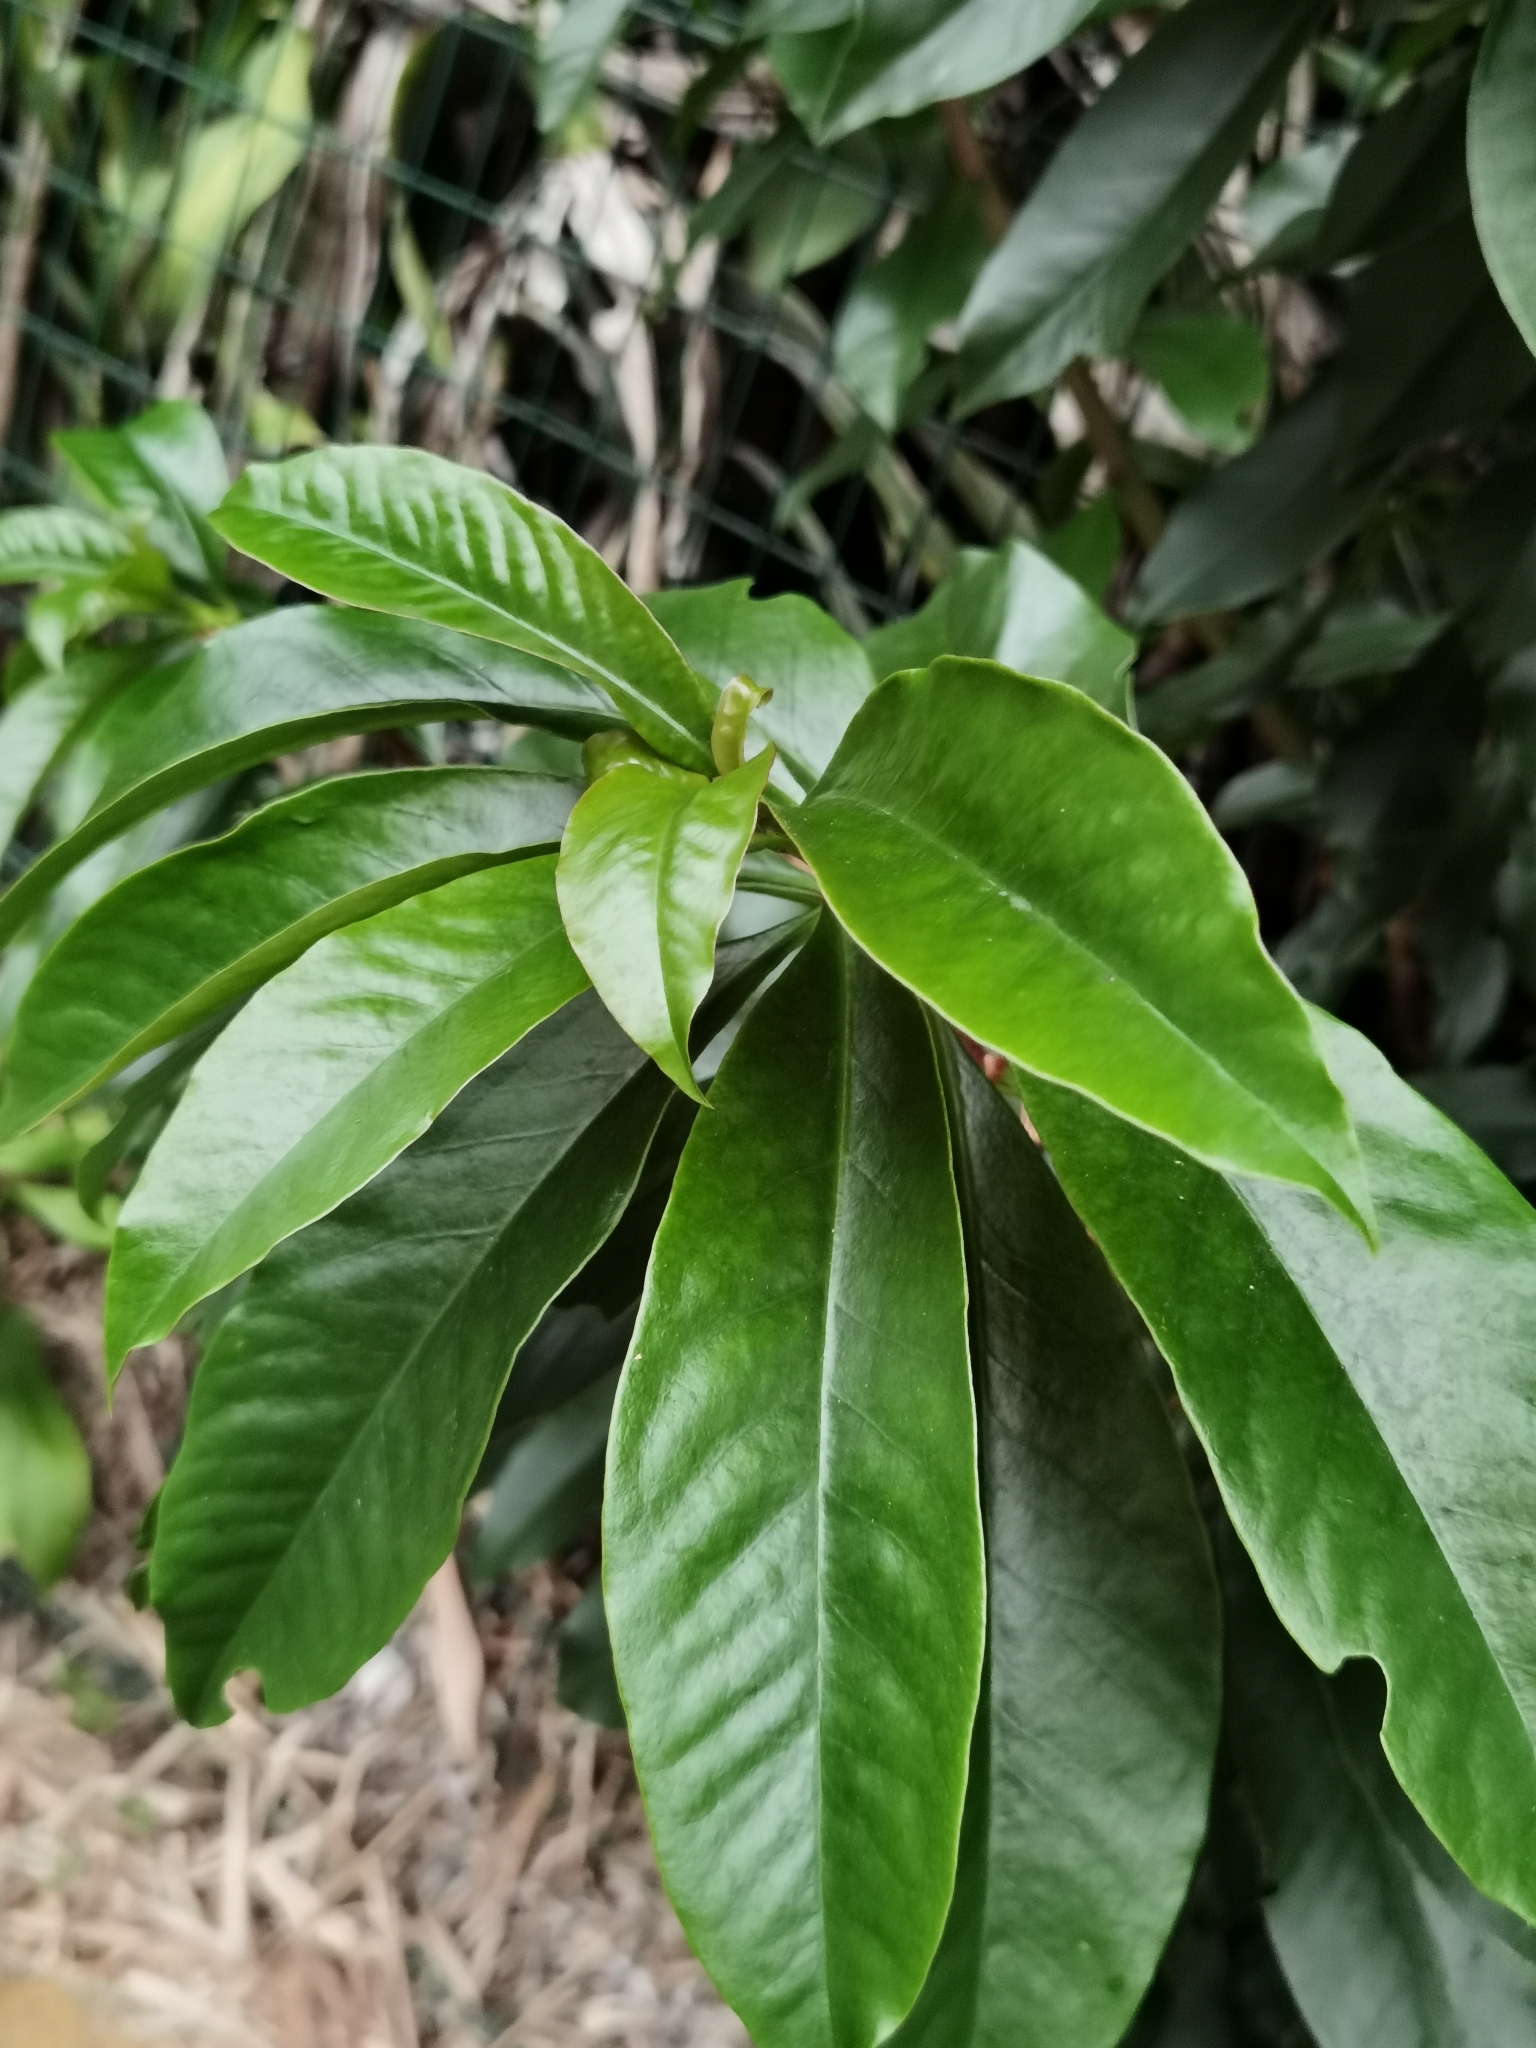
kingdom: Plantae
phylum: Tracheophyta
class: Magnoliopsida
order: Caryophyllales
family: Cactaceae
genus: Pereskia
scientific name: Pereskia grandifolia
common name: Rose cactus
